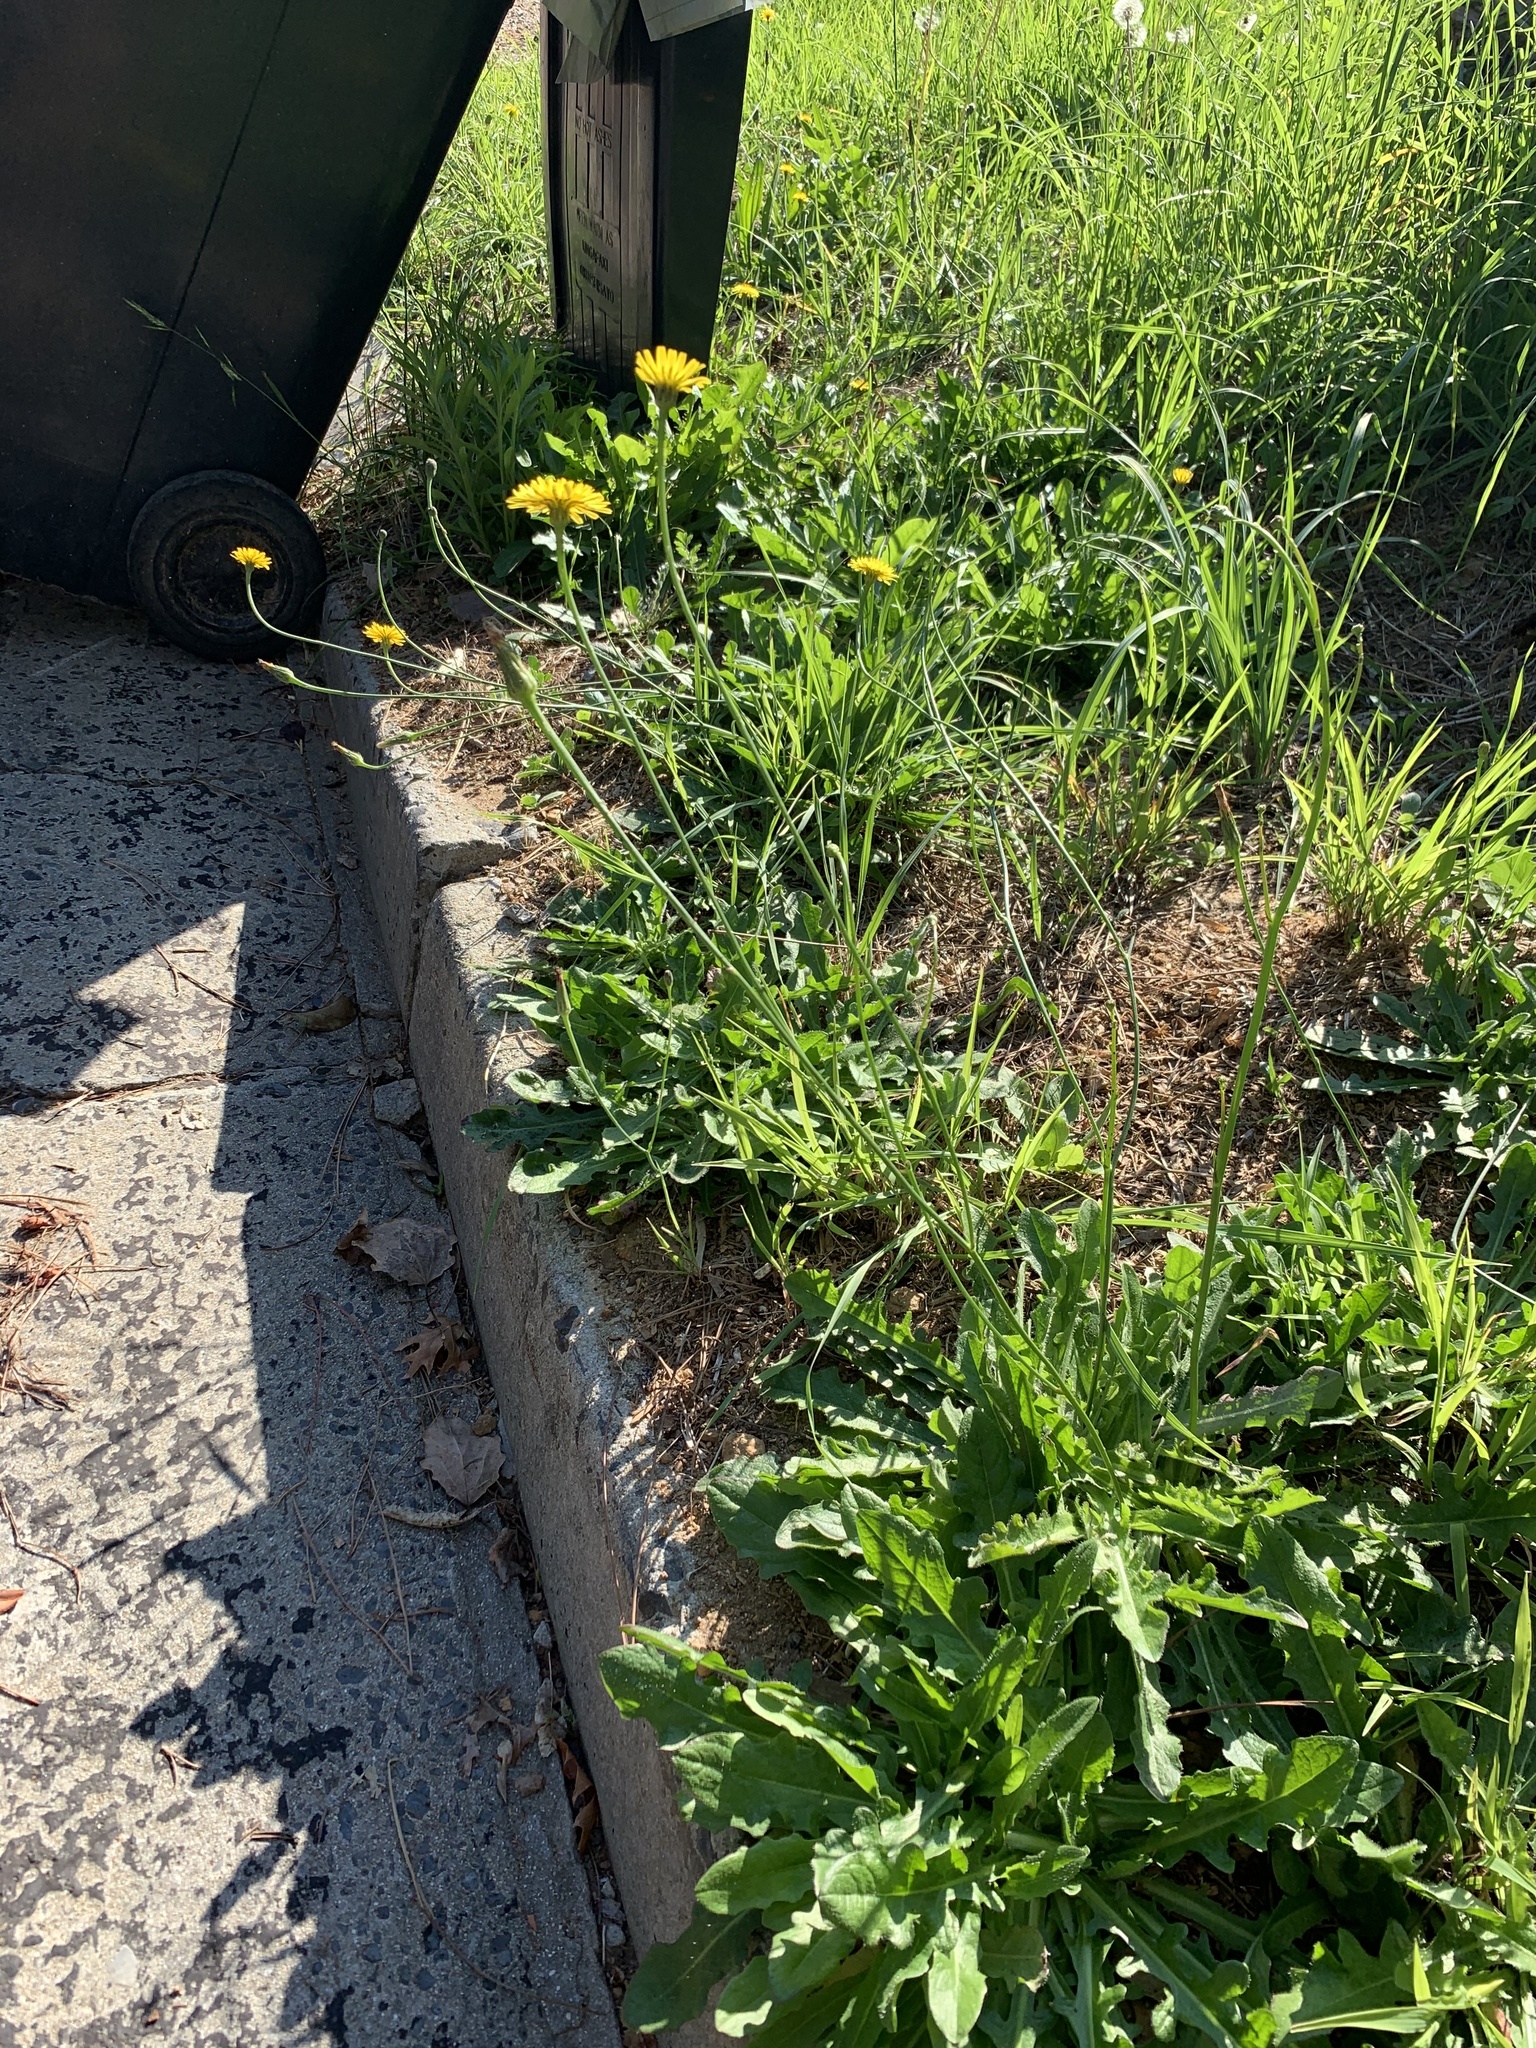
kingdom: Plantae
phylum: Tracheophyta
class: Magnoliopsida
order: Asterales
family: Asteraceae
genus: Hypochaeris
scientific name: Hypochaeris radicata
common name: Flatweed
